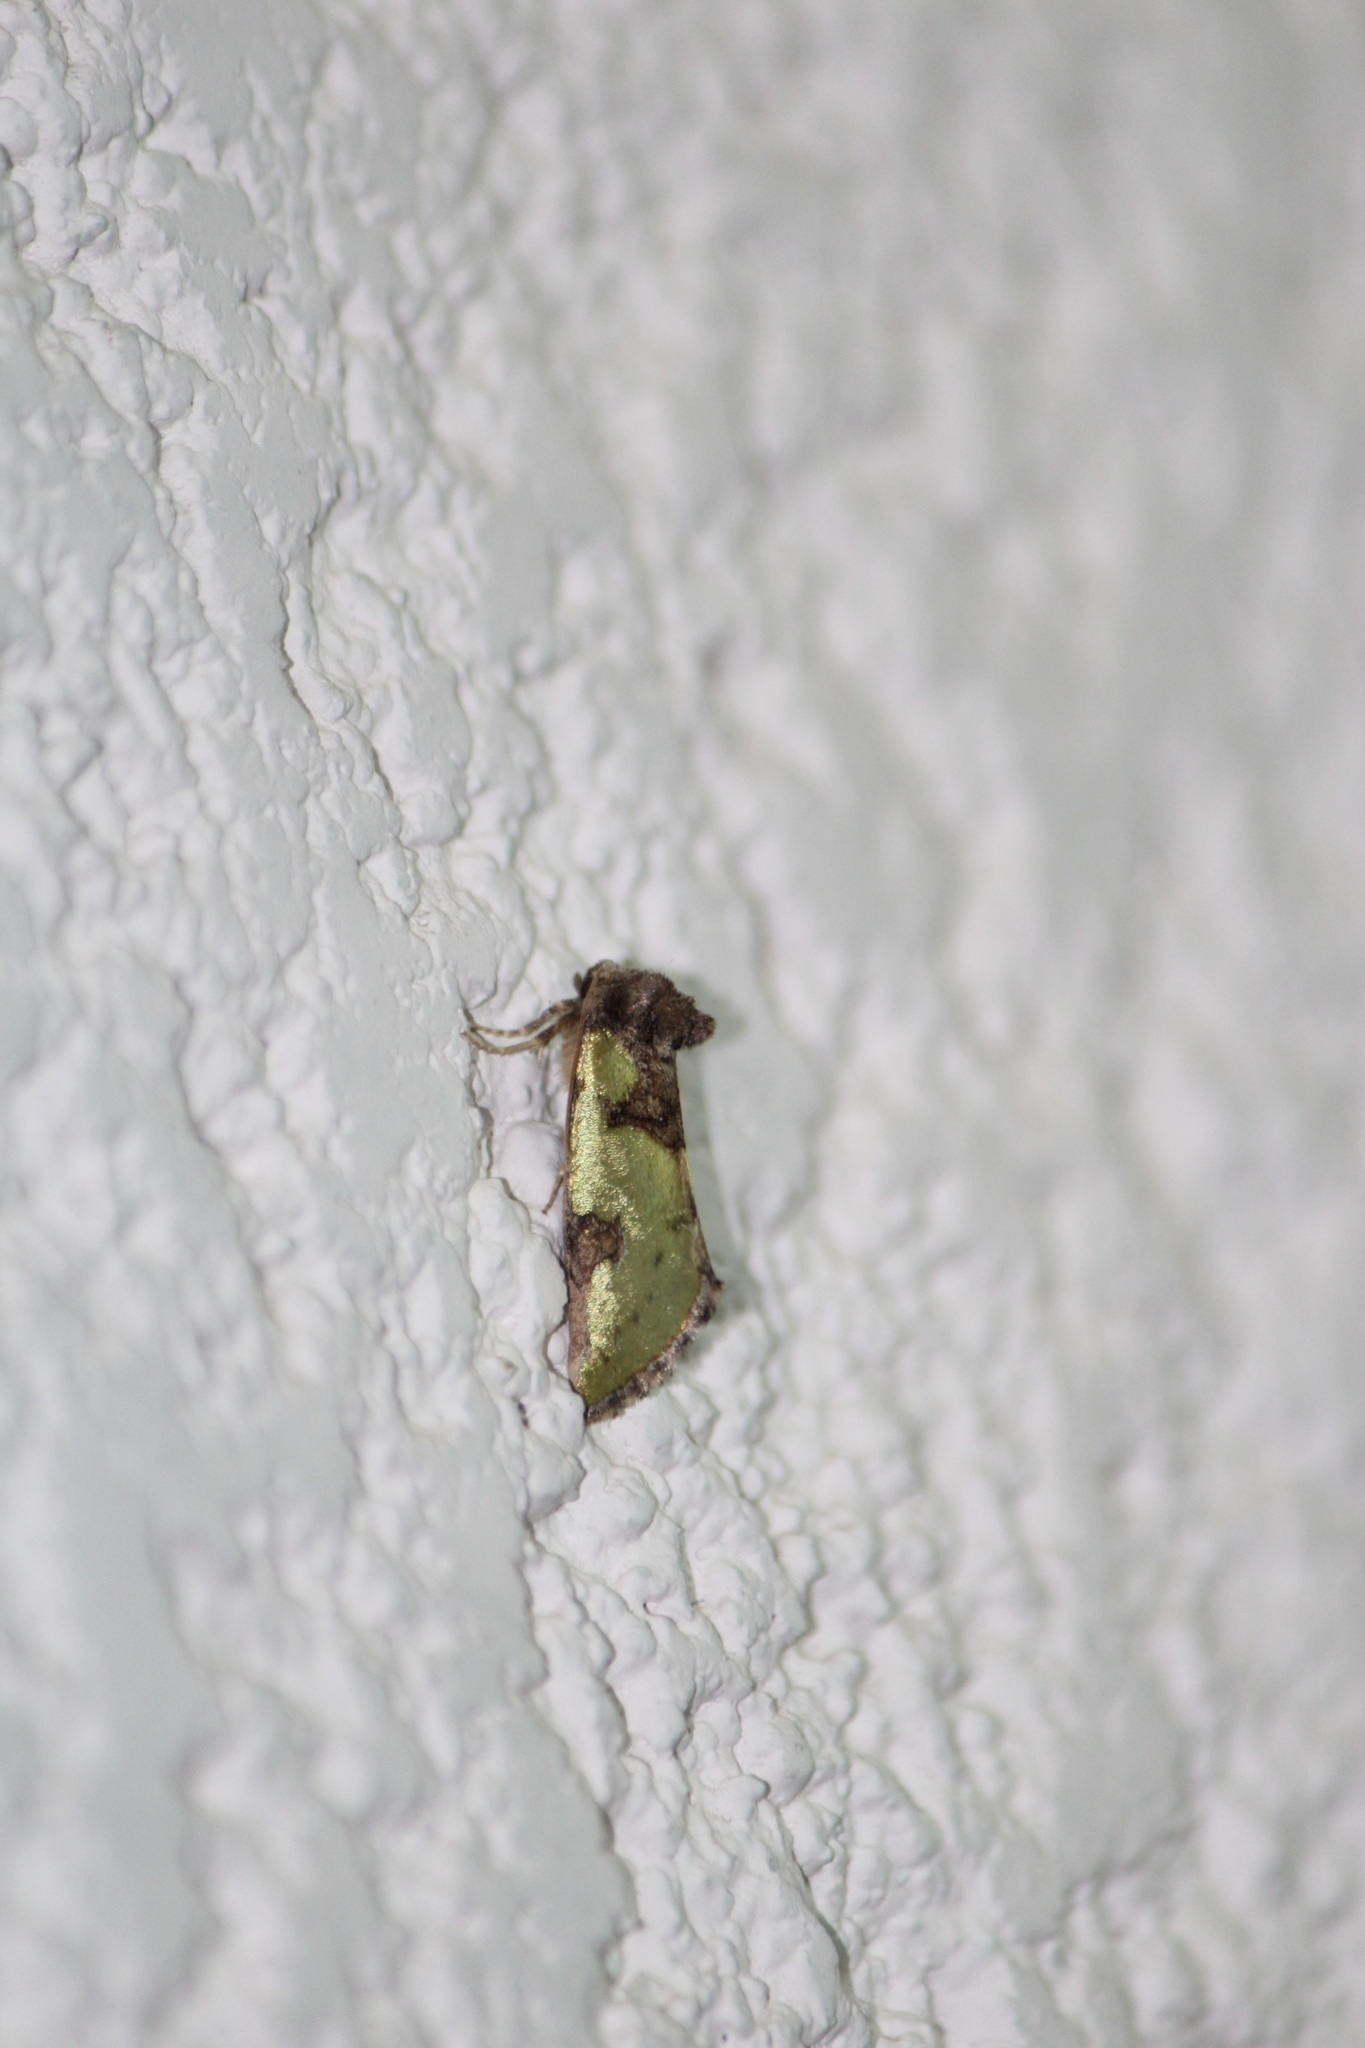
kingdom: Animalia
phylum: Arthropoda
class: Insecta
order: Lepidoptera
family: Noctuidae
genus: Chalcopasta
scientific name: Chalcopasta fulgens
